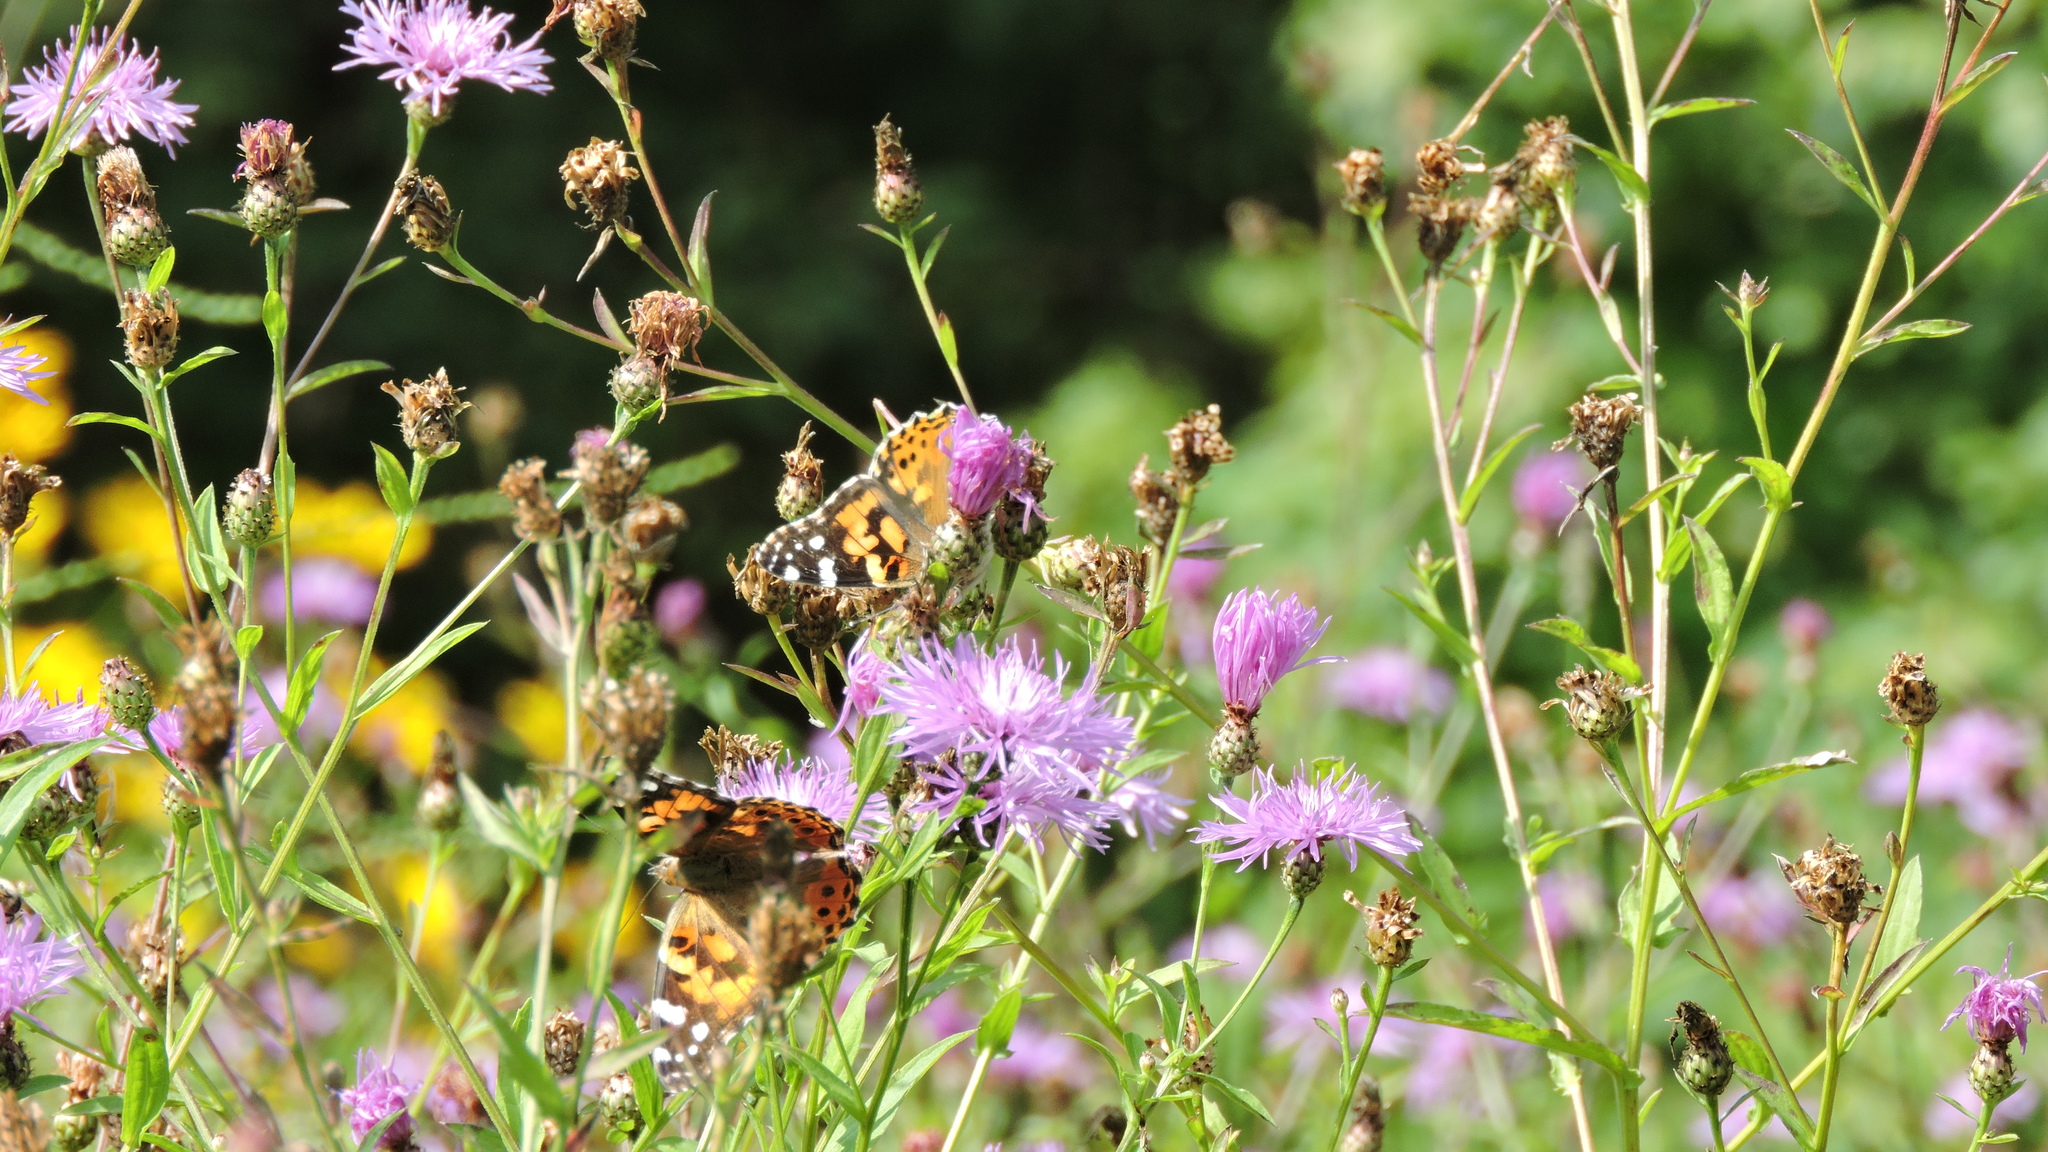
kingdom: Animalia
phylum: Arthropoda
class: Insecta
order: Lepidoptera
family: Nymphalidae
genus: Vanessa
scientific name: Vanessa cardui
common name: Painted lady
